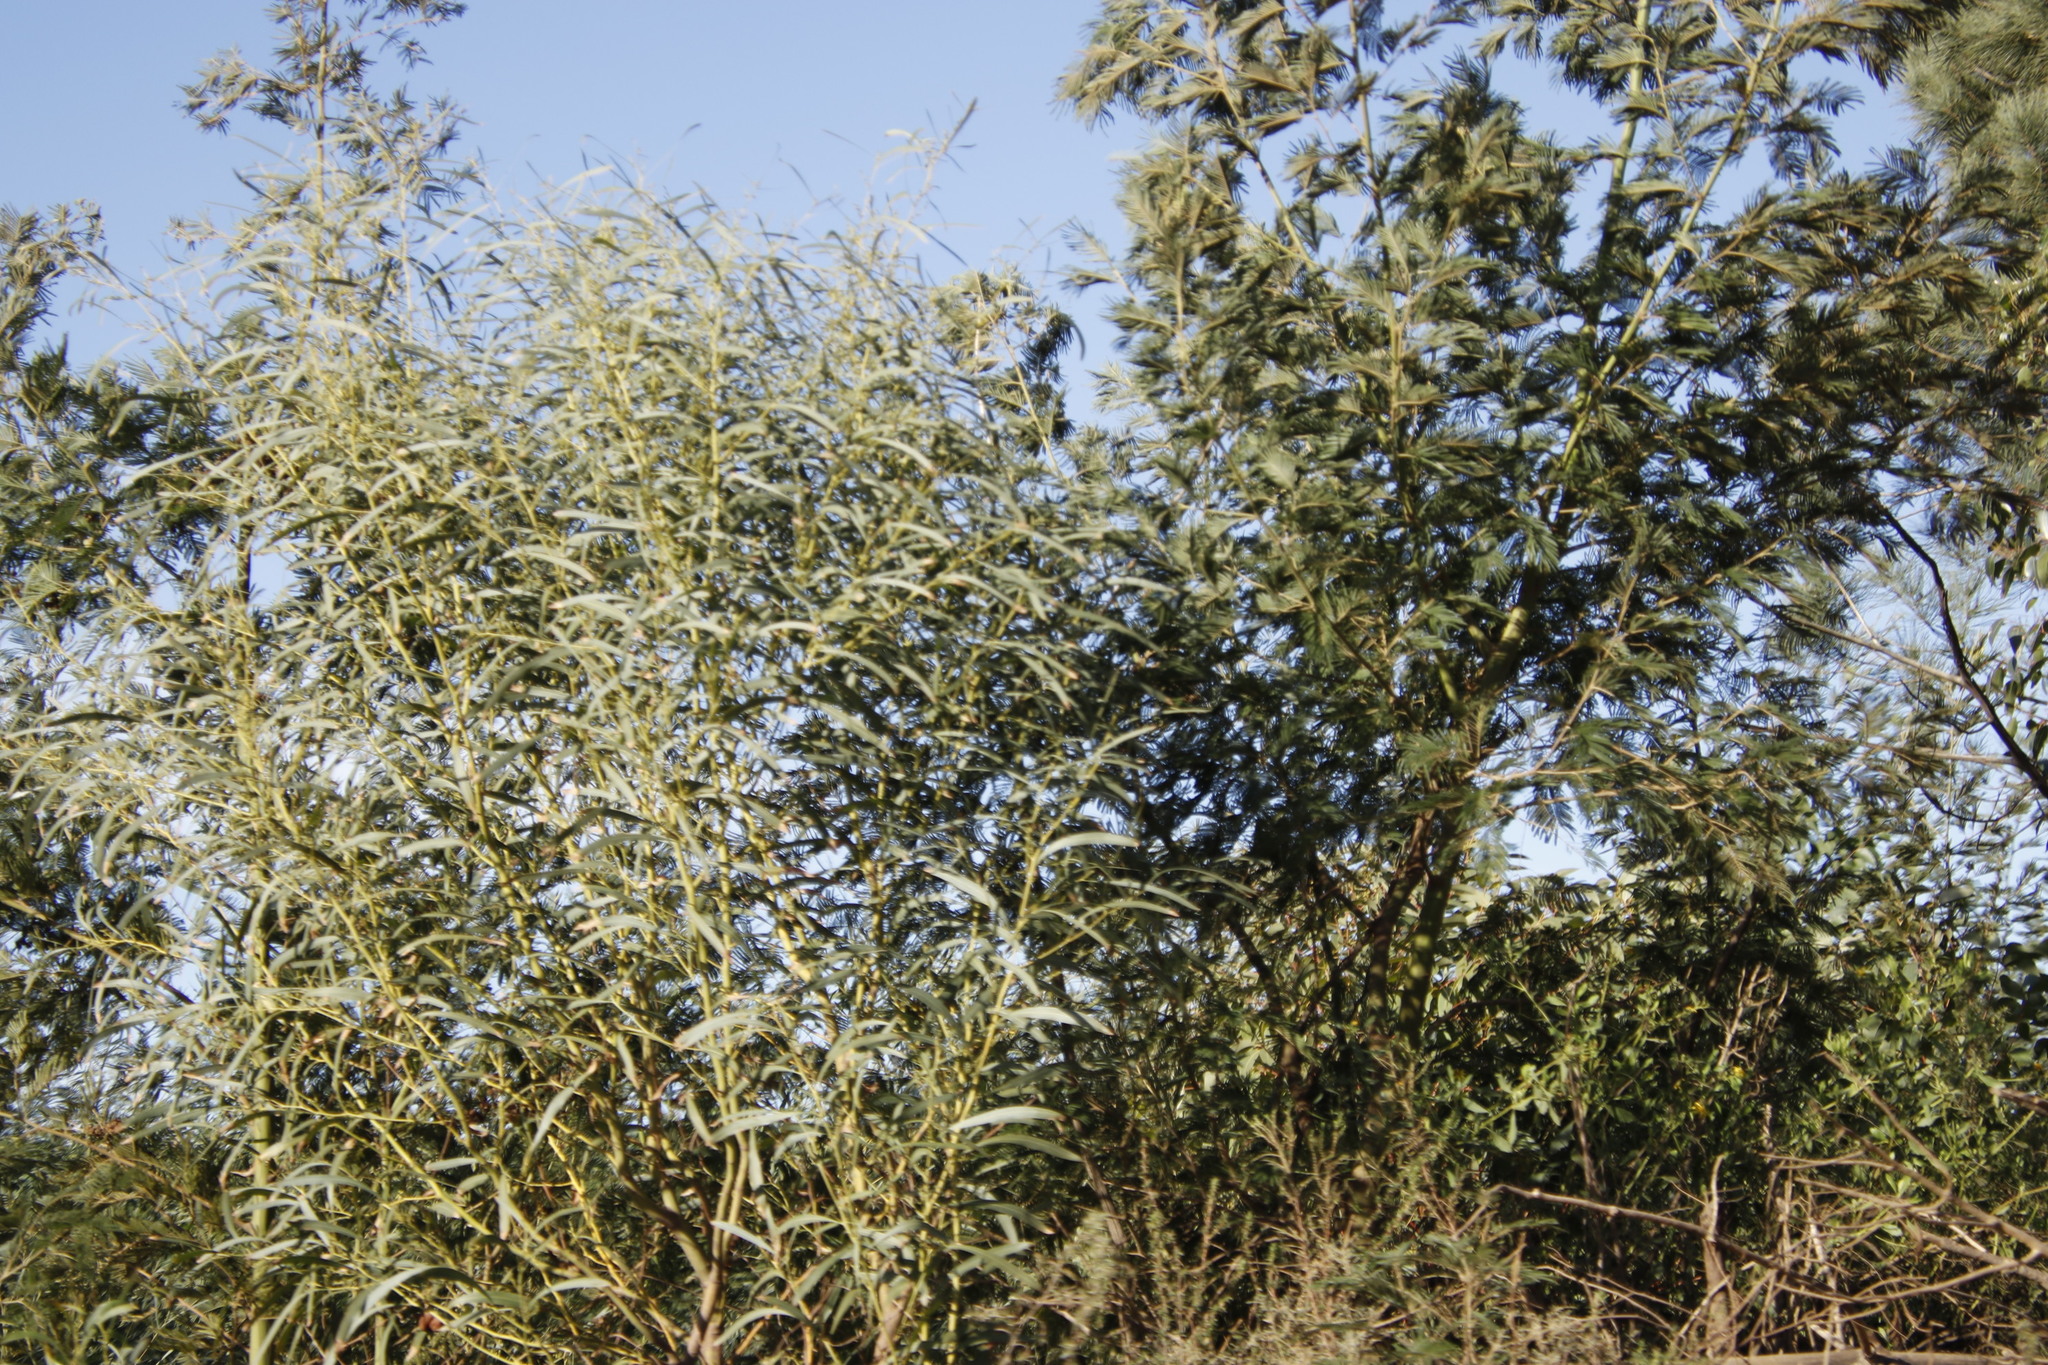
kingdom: Plantae
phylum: Tracheophyta
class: Magnoliopsida
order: Fabales
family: Fabaceae
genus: Acacia
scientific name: Acacia saligna
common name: Orange wattle
